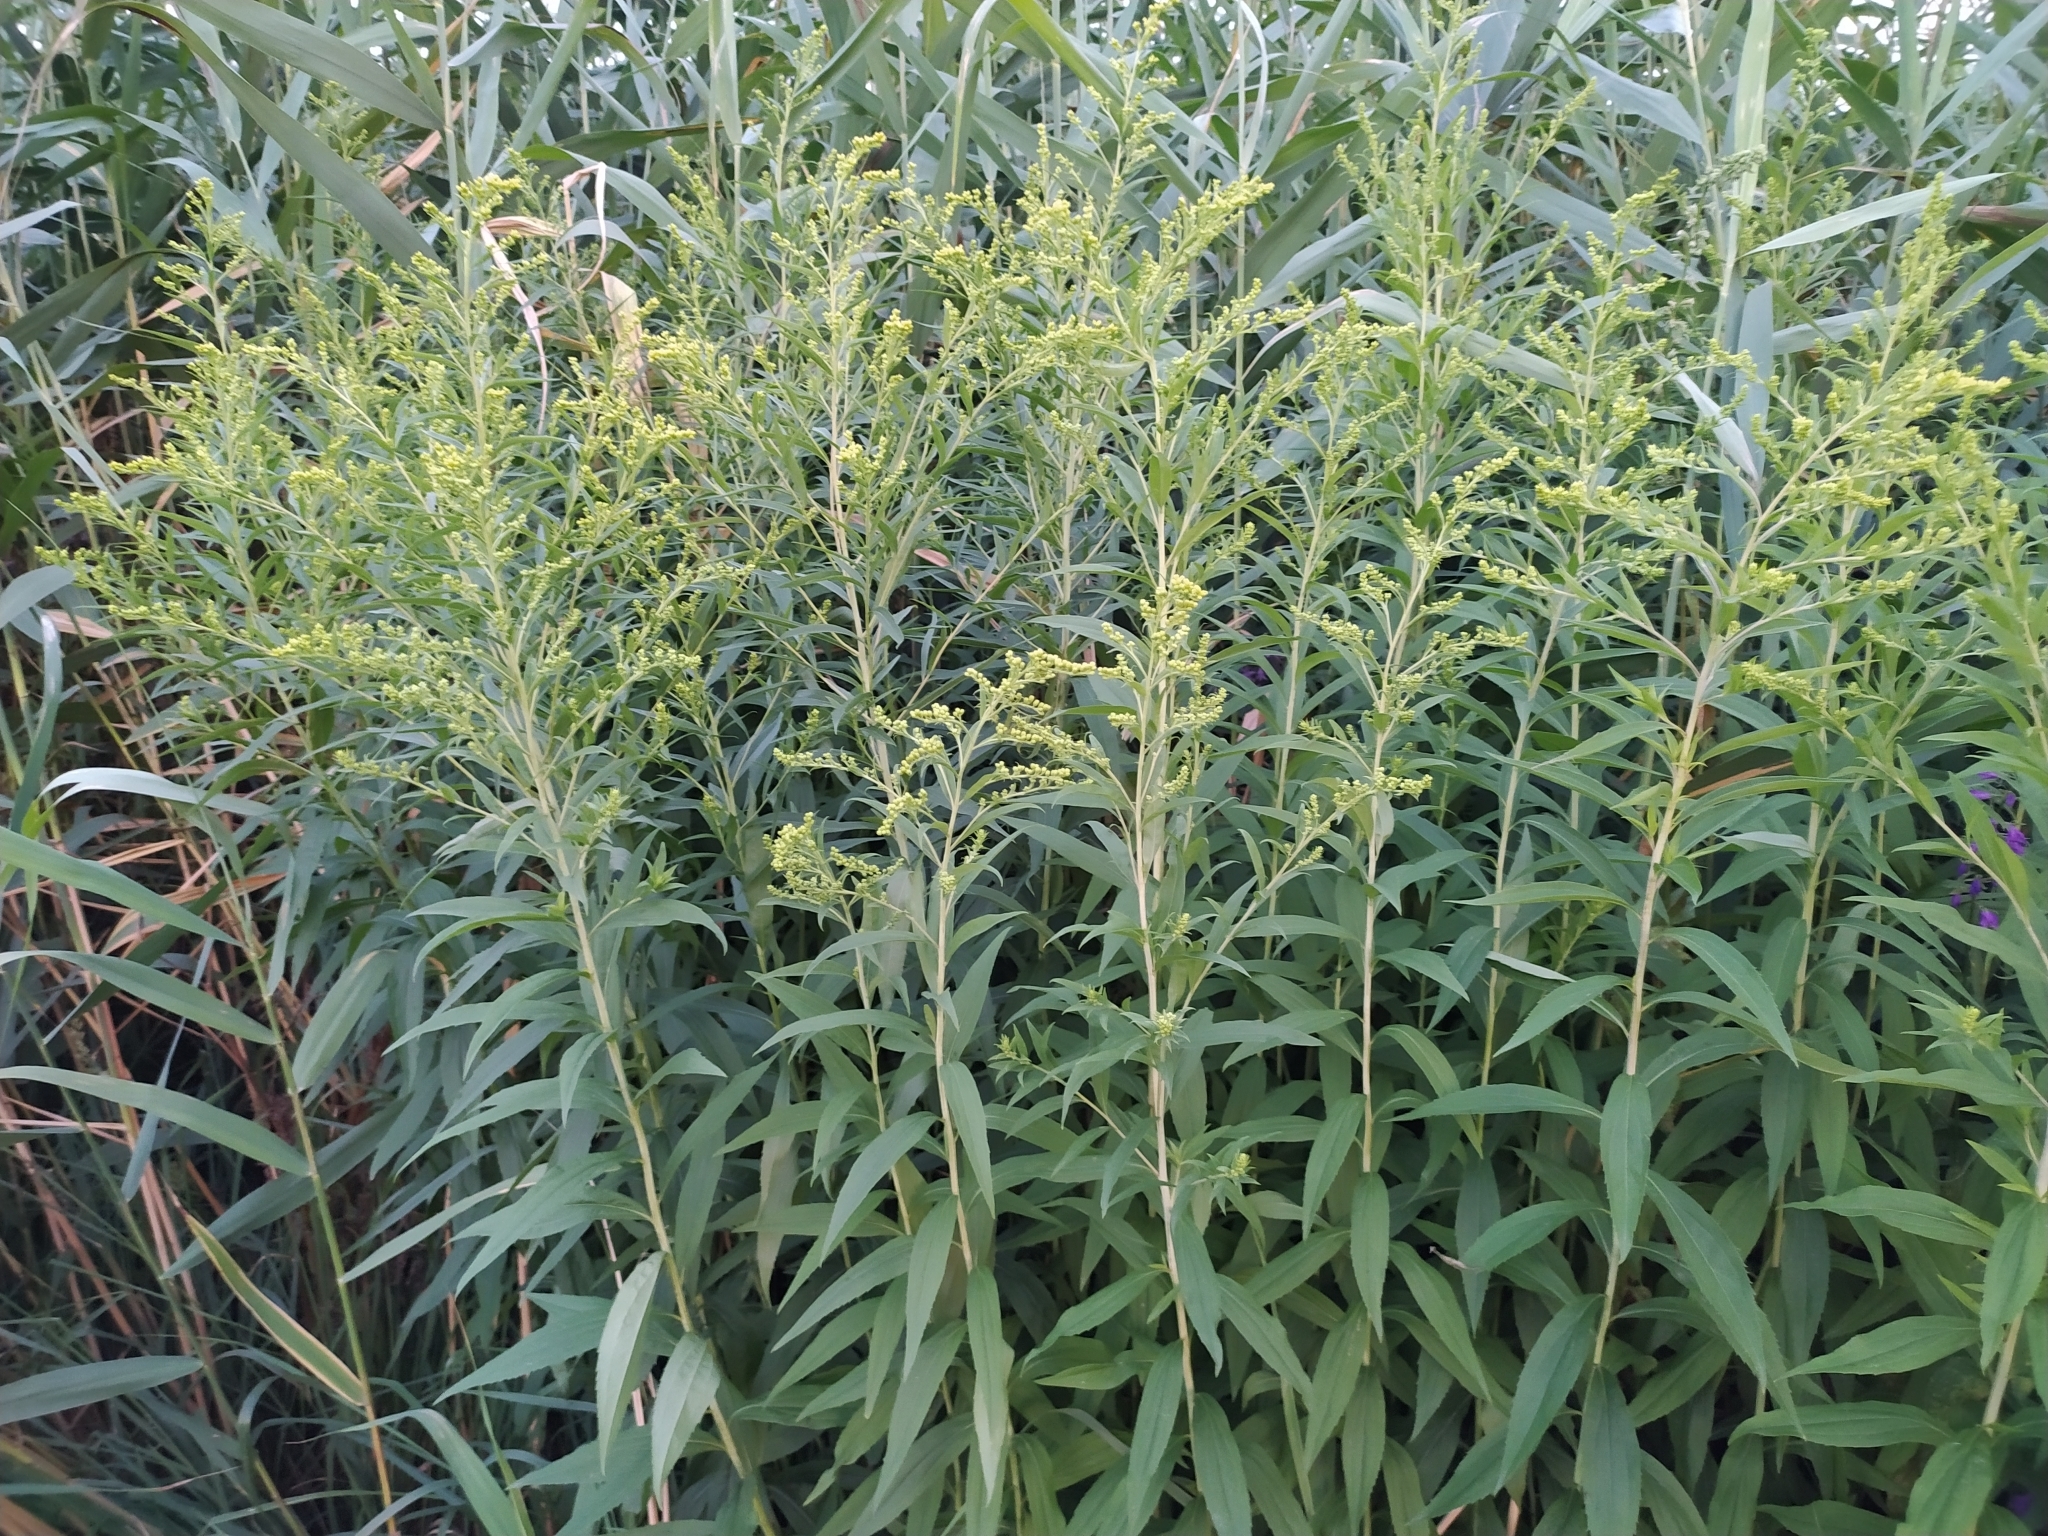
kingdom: Plantae
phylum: Tracheophyta
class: Magnoliopsida
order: Asterales
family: Asteraceae
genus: Solidago
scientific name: Solidago gigantea
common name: Giant goldenrod
